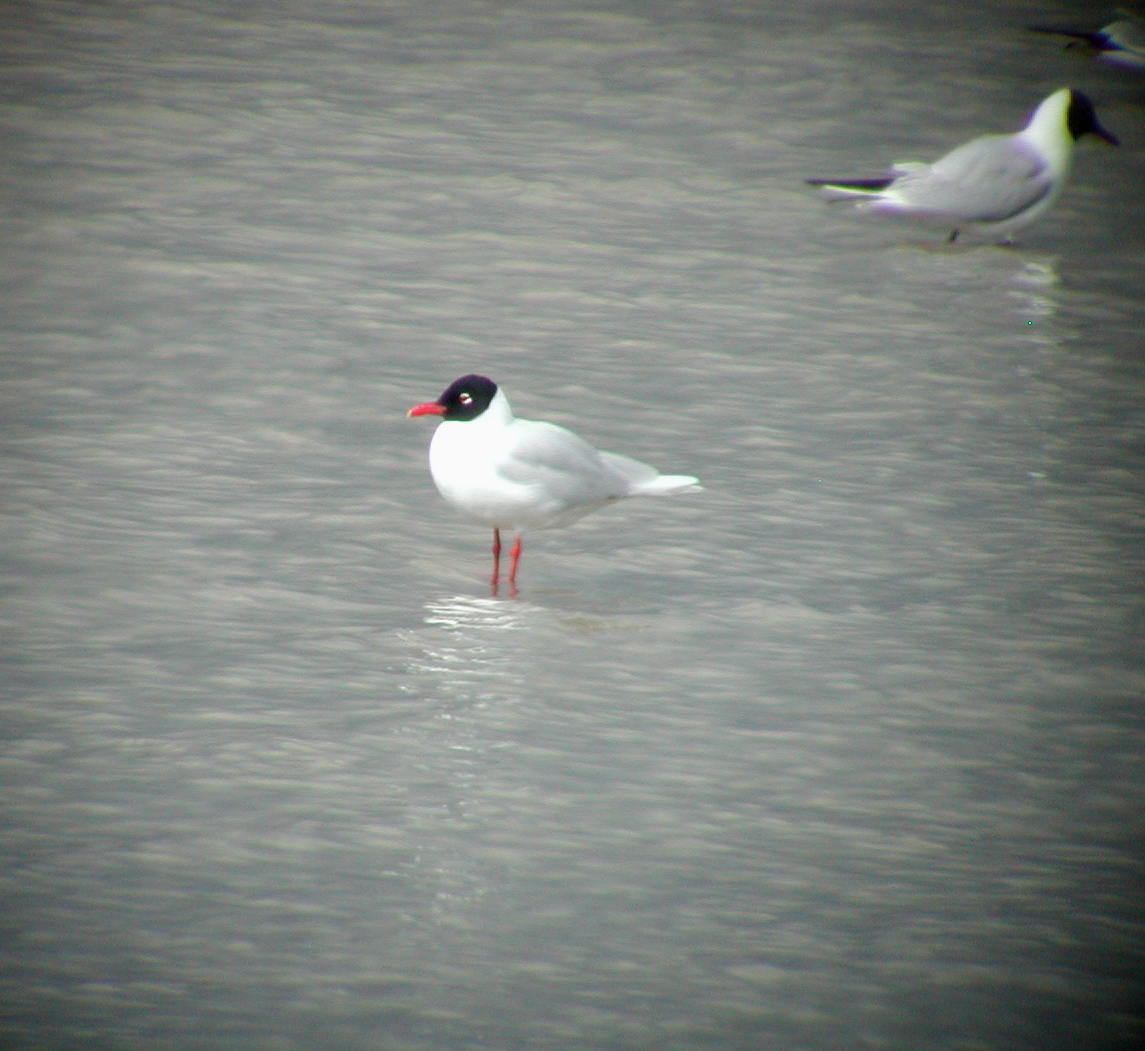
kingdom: Animalia
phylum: Chordata
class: Aves
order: Charadriiformes
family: Laridae
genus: Ichthyaetus
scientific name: Ichthyaetus melanocephalus
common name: Mediterranean gull
